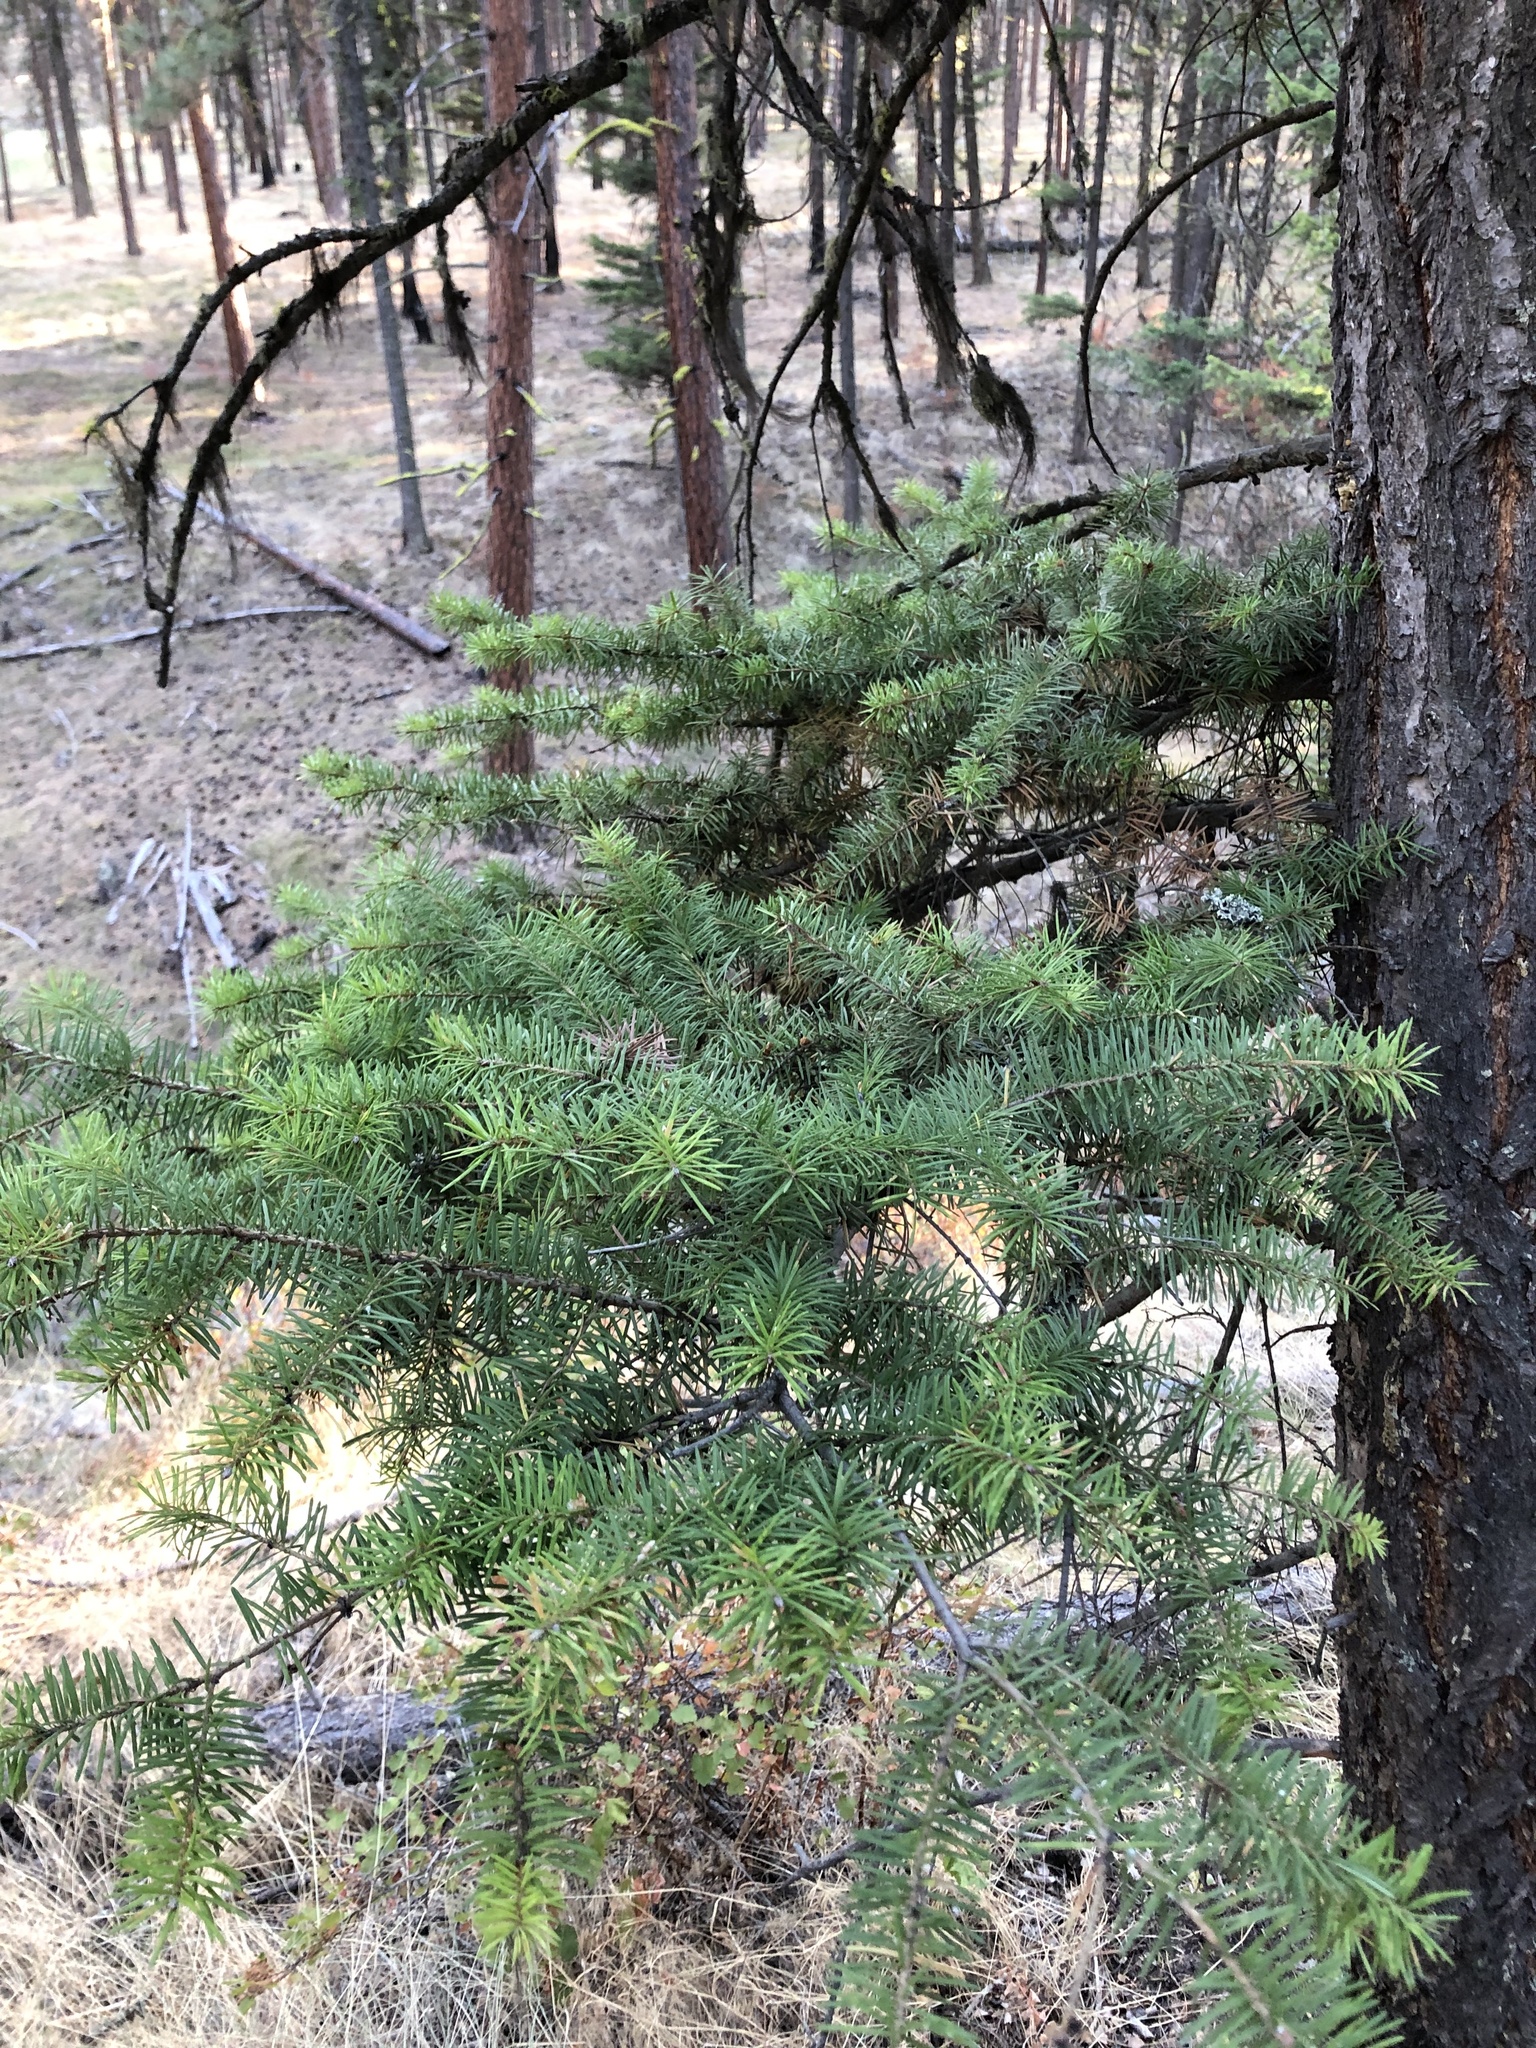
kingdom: Plantae
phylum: Tracheophyta
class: Pinopsida
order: Pinales
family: Pinaceae
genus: Pseudotsuga
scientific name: Pseudotsuga menziesii
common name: Douglas fir
